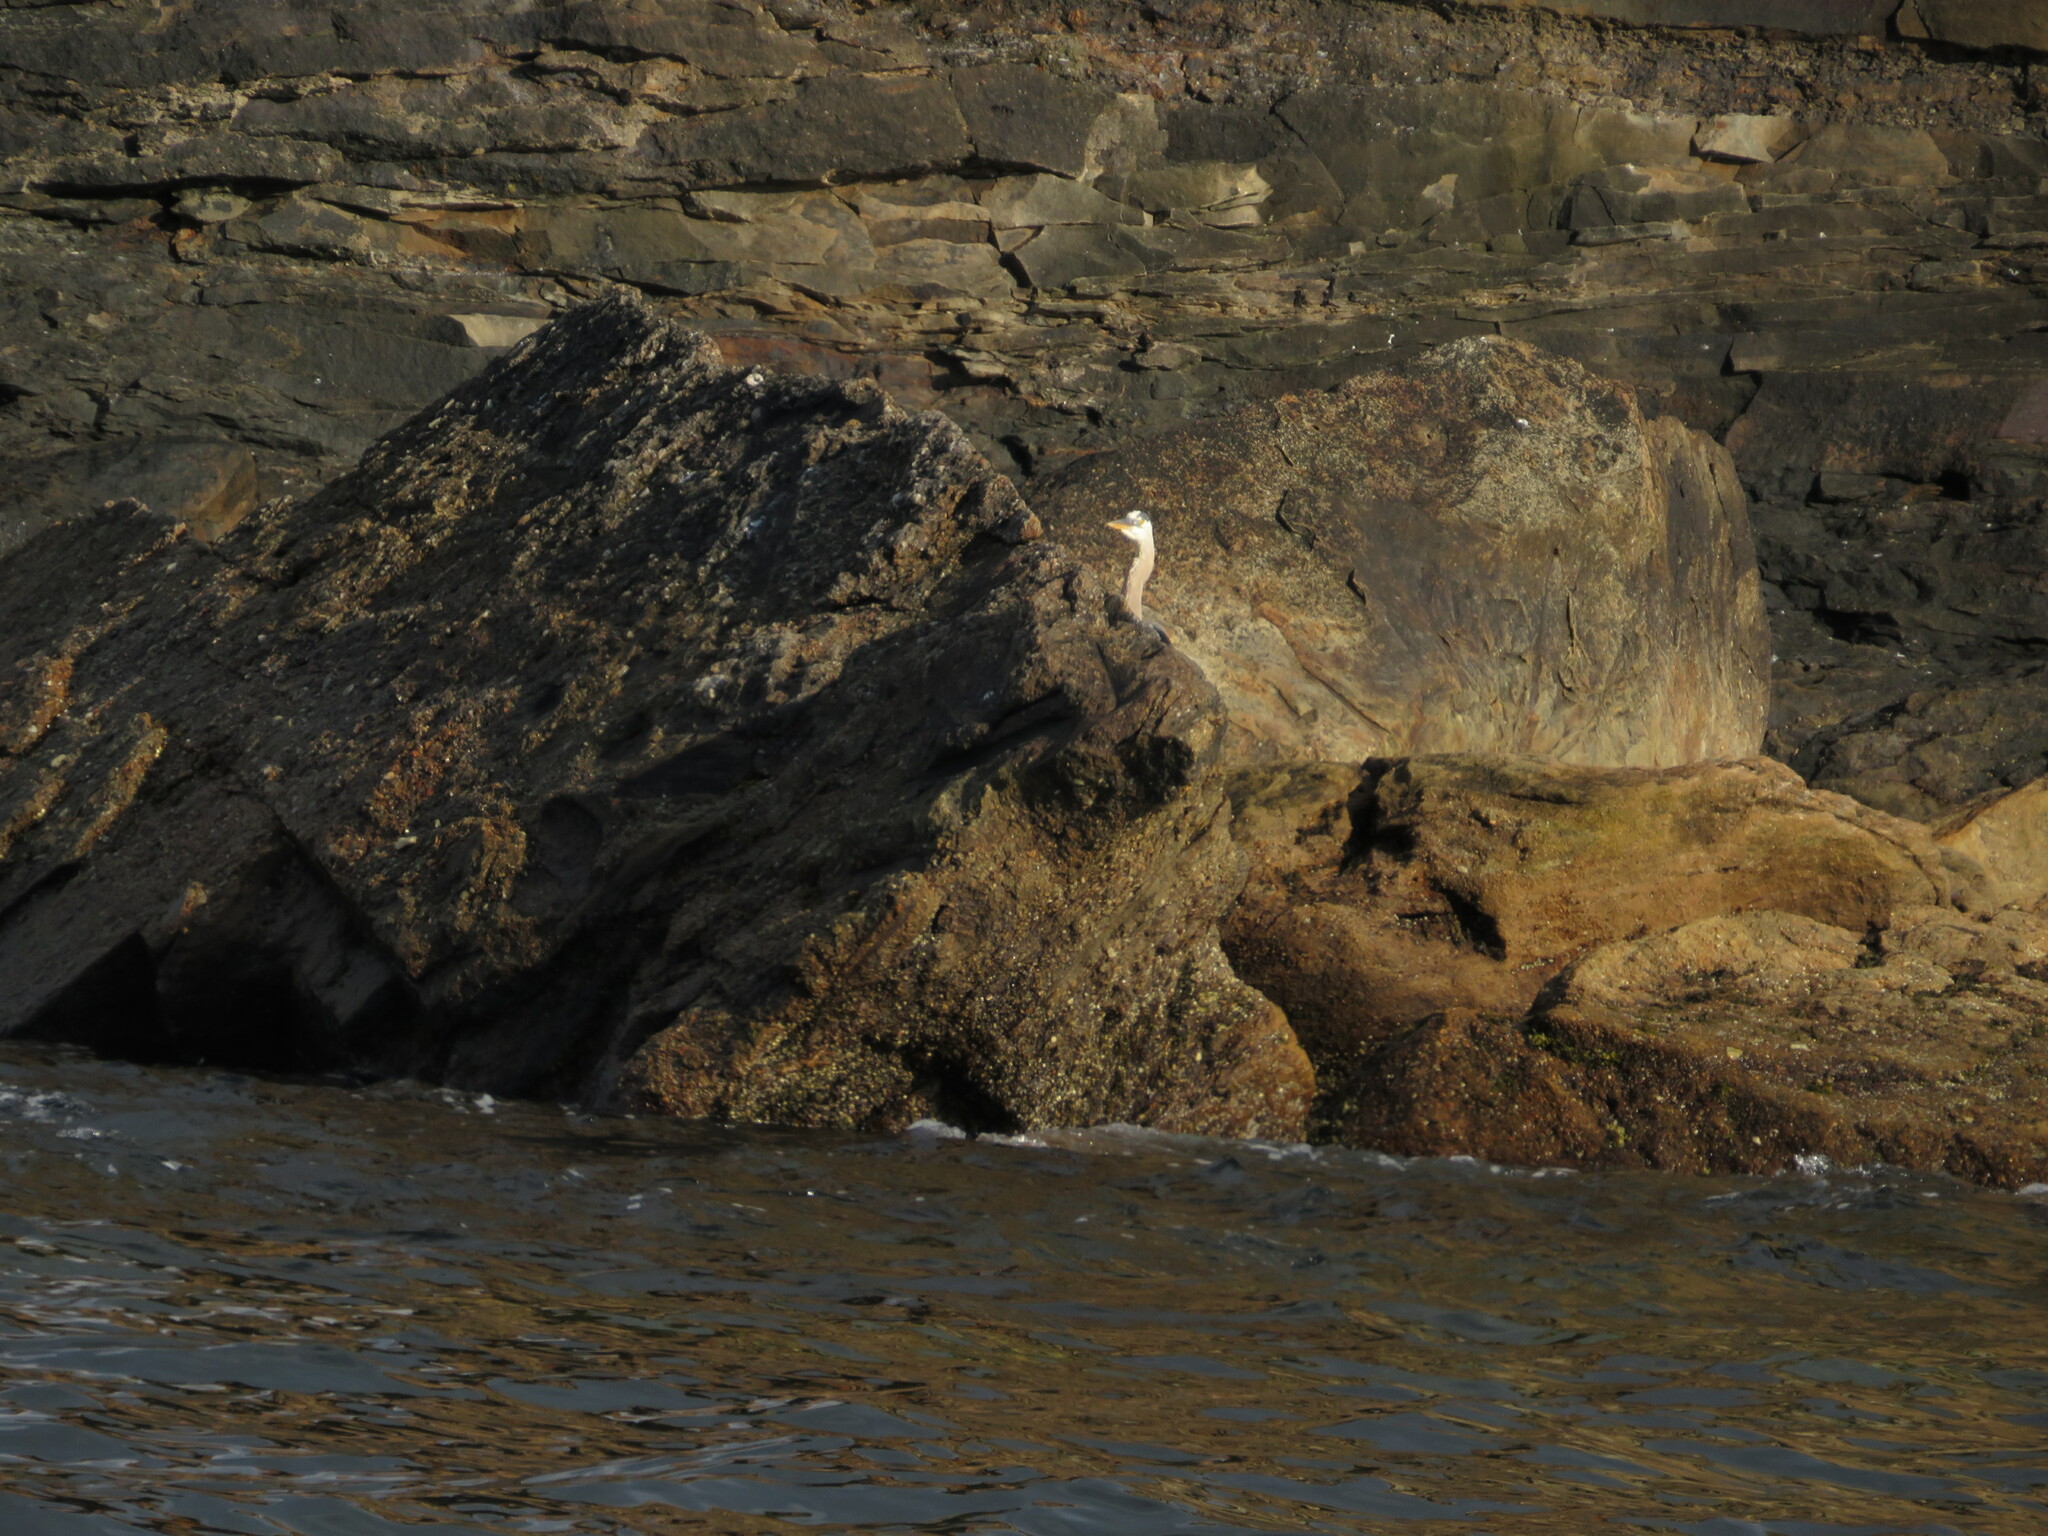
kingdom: Animalia
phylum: Chordata
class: Aves
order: Pelecaniformes
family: Ardeidae
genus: Ardea
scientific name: Ardea herodias
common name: Great blue heron
